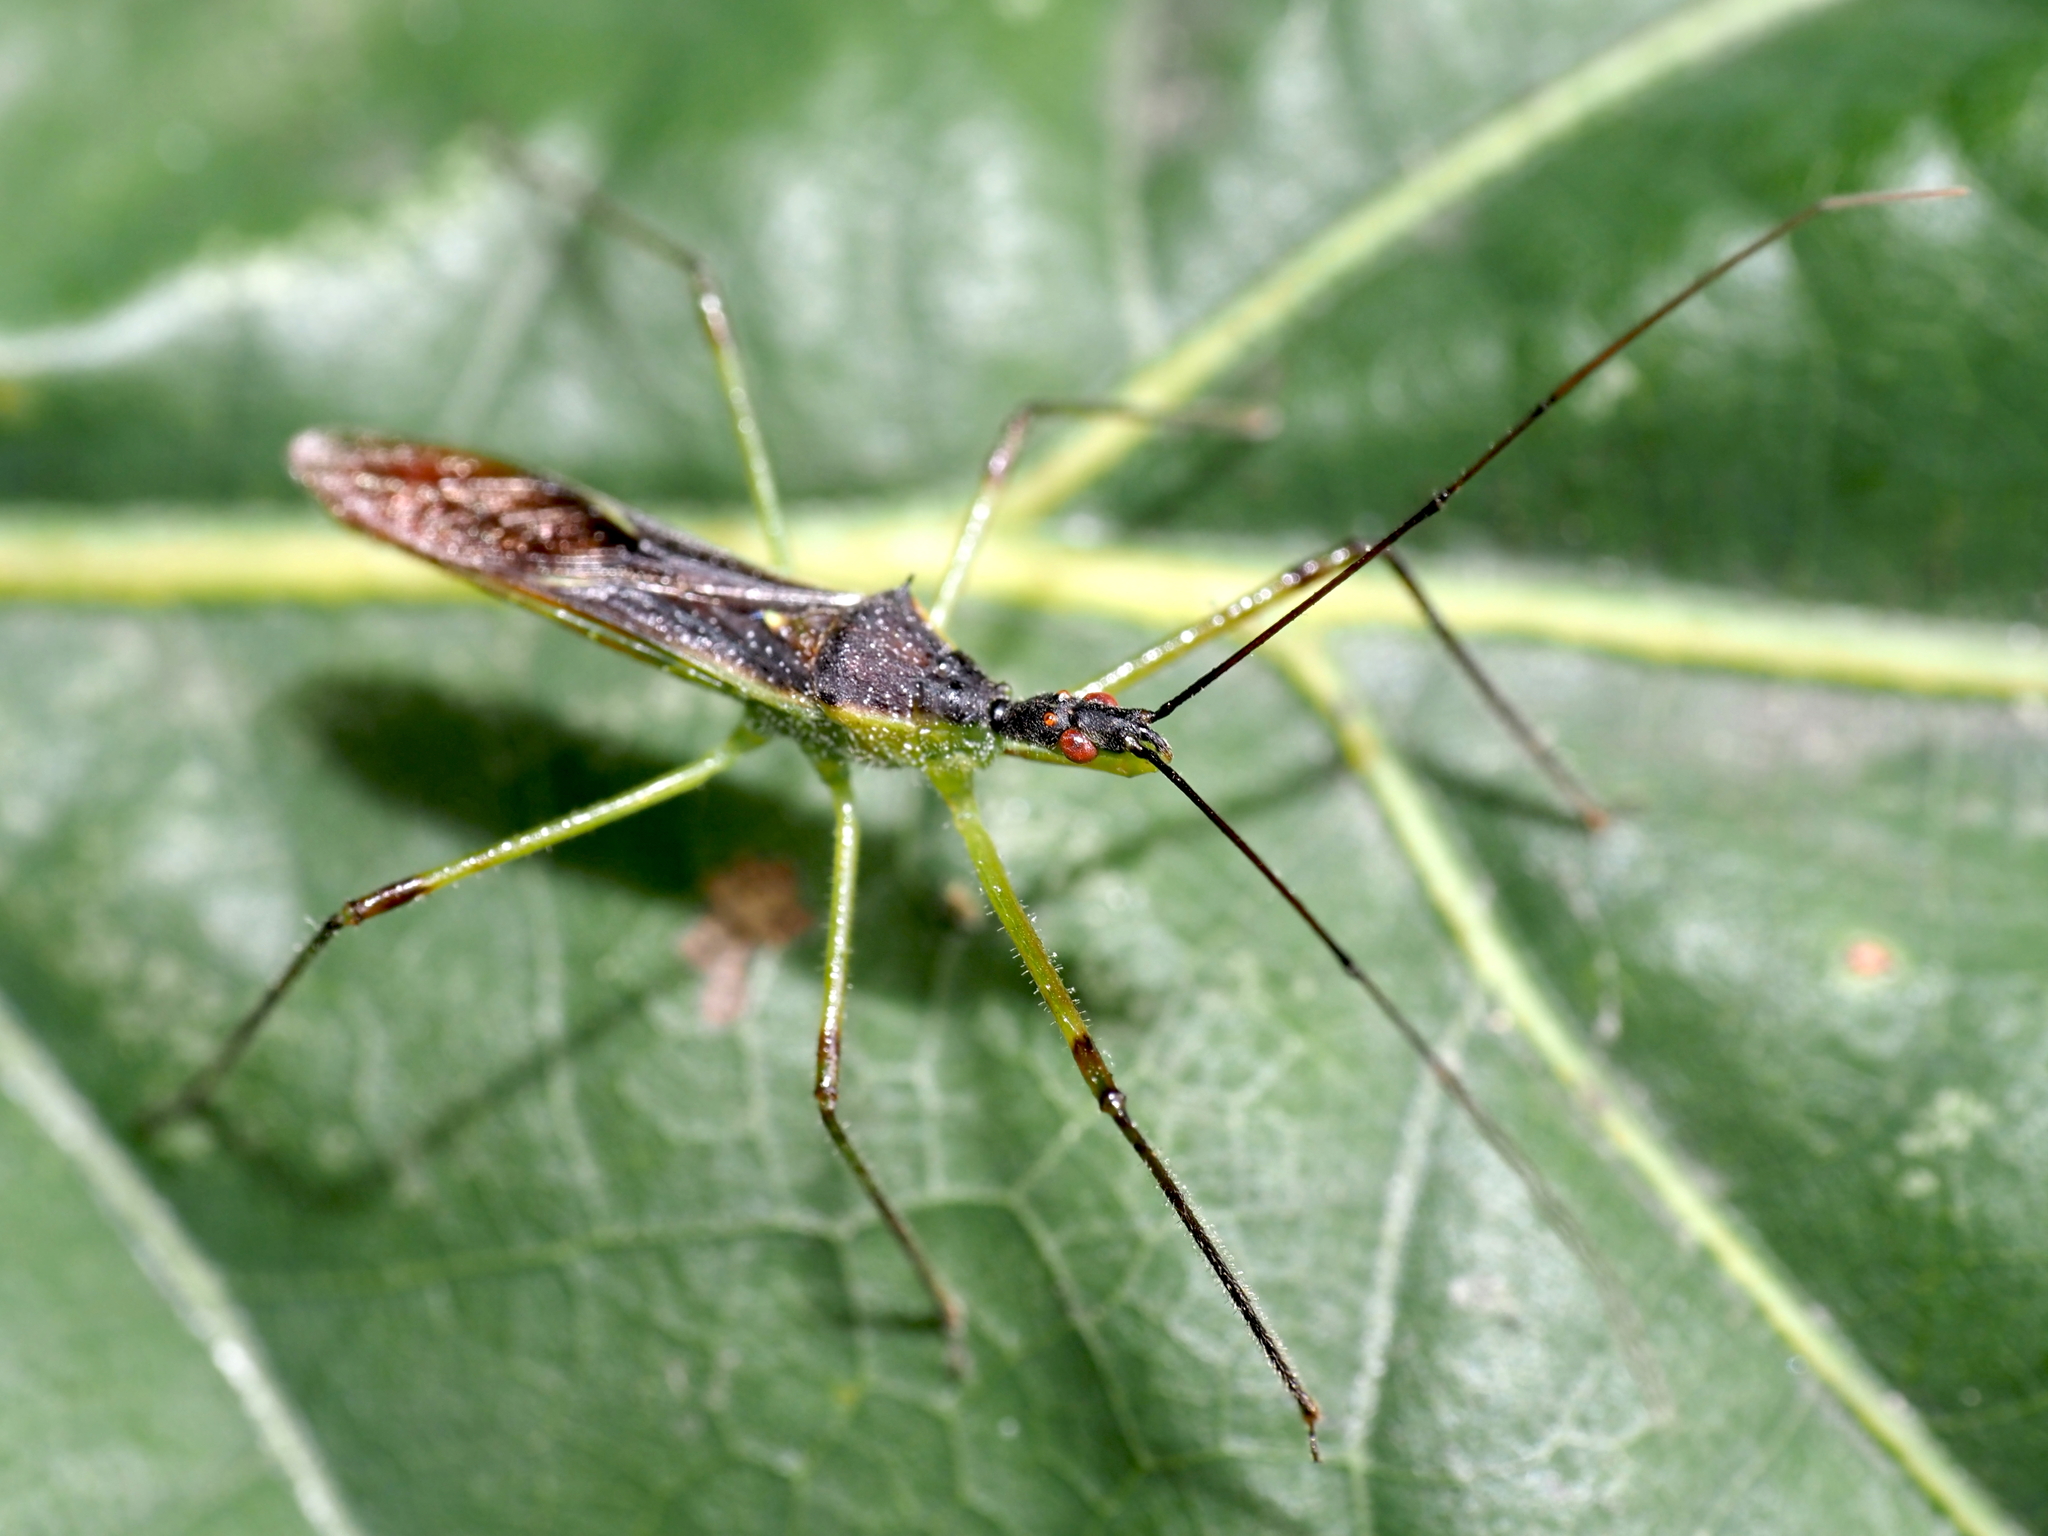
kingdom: Animalia
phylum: Arthropoda
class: Insecta
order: Hemiptera
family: Reduviidae
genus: Zelus
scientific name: Zelus luridus
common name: Pale green assassin bug
